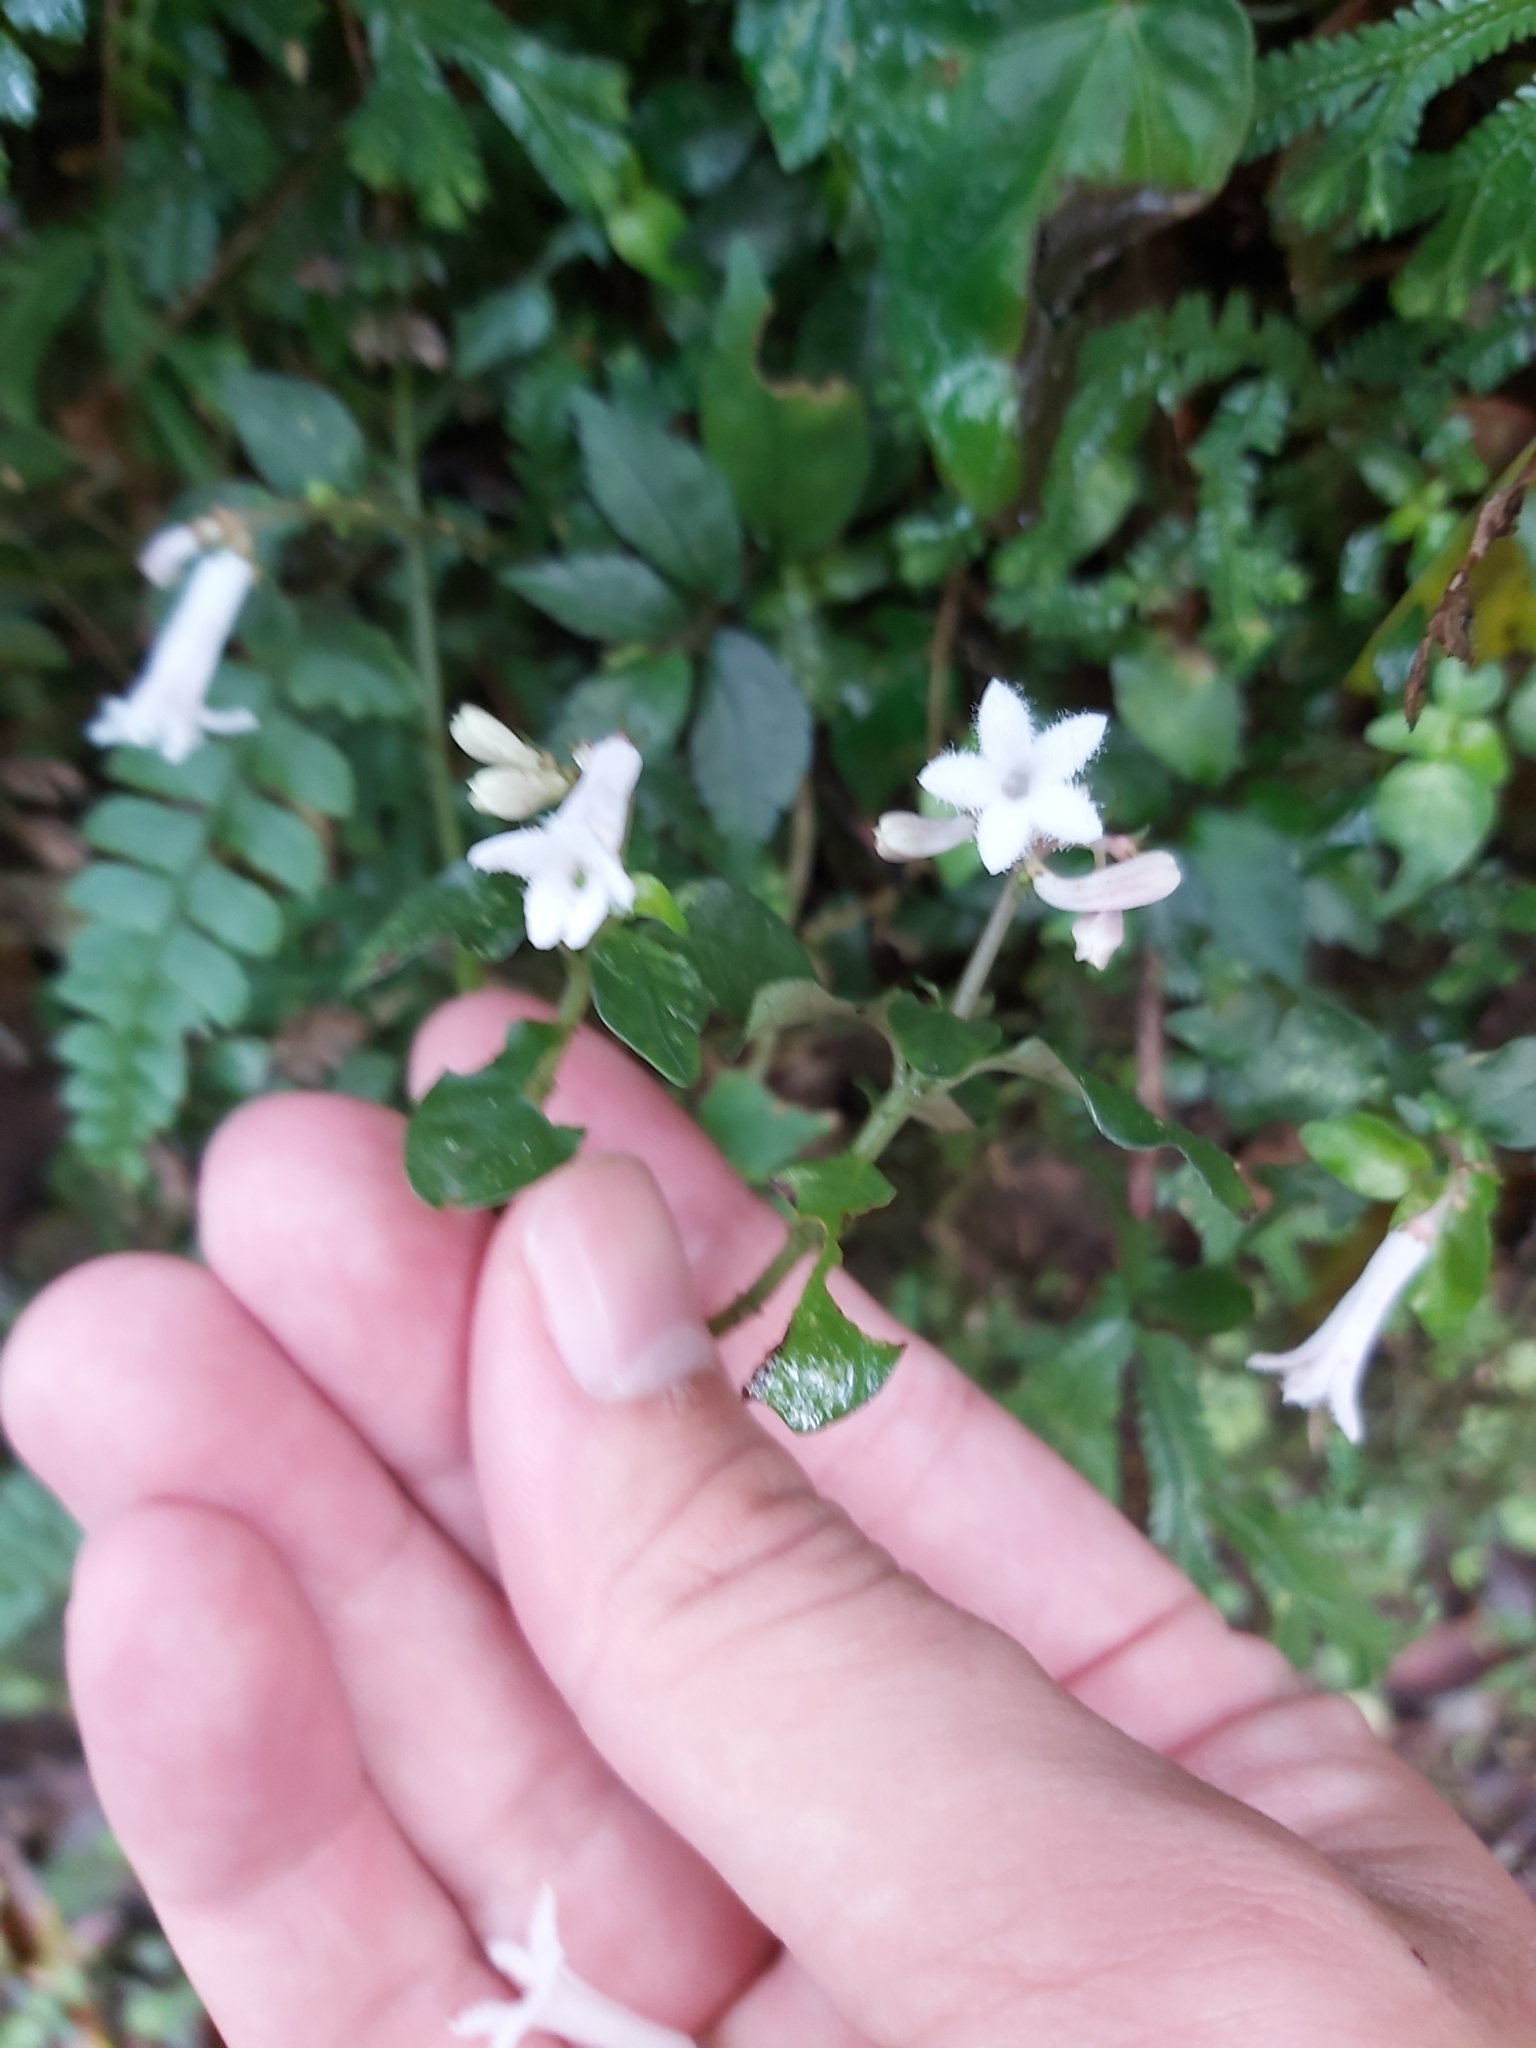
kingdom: Plantae
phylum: Tracheophyta
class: Magnoliopsida
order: Gentianales
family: Rubiaceae
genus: Ophiorrhiza
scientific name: Ophiorrhiza japonica
